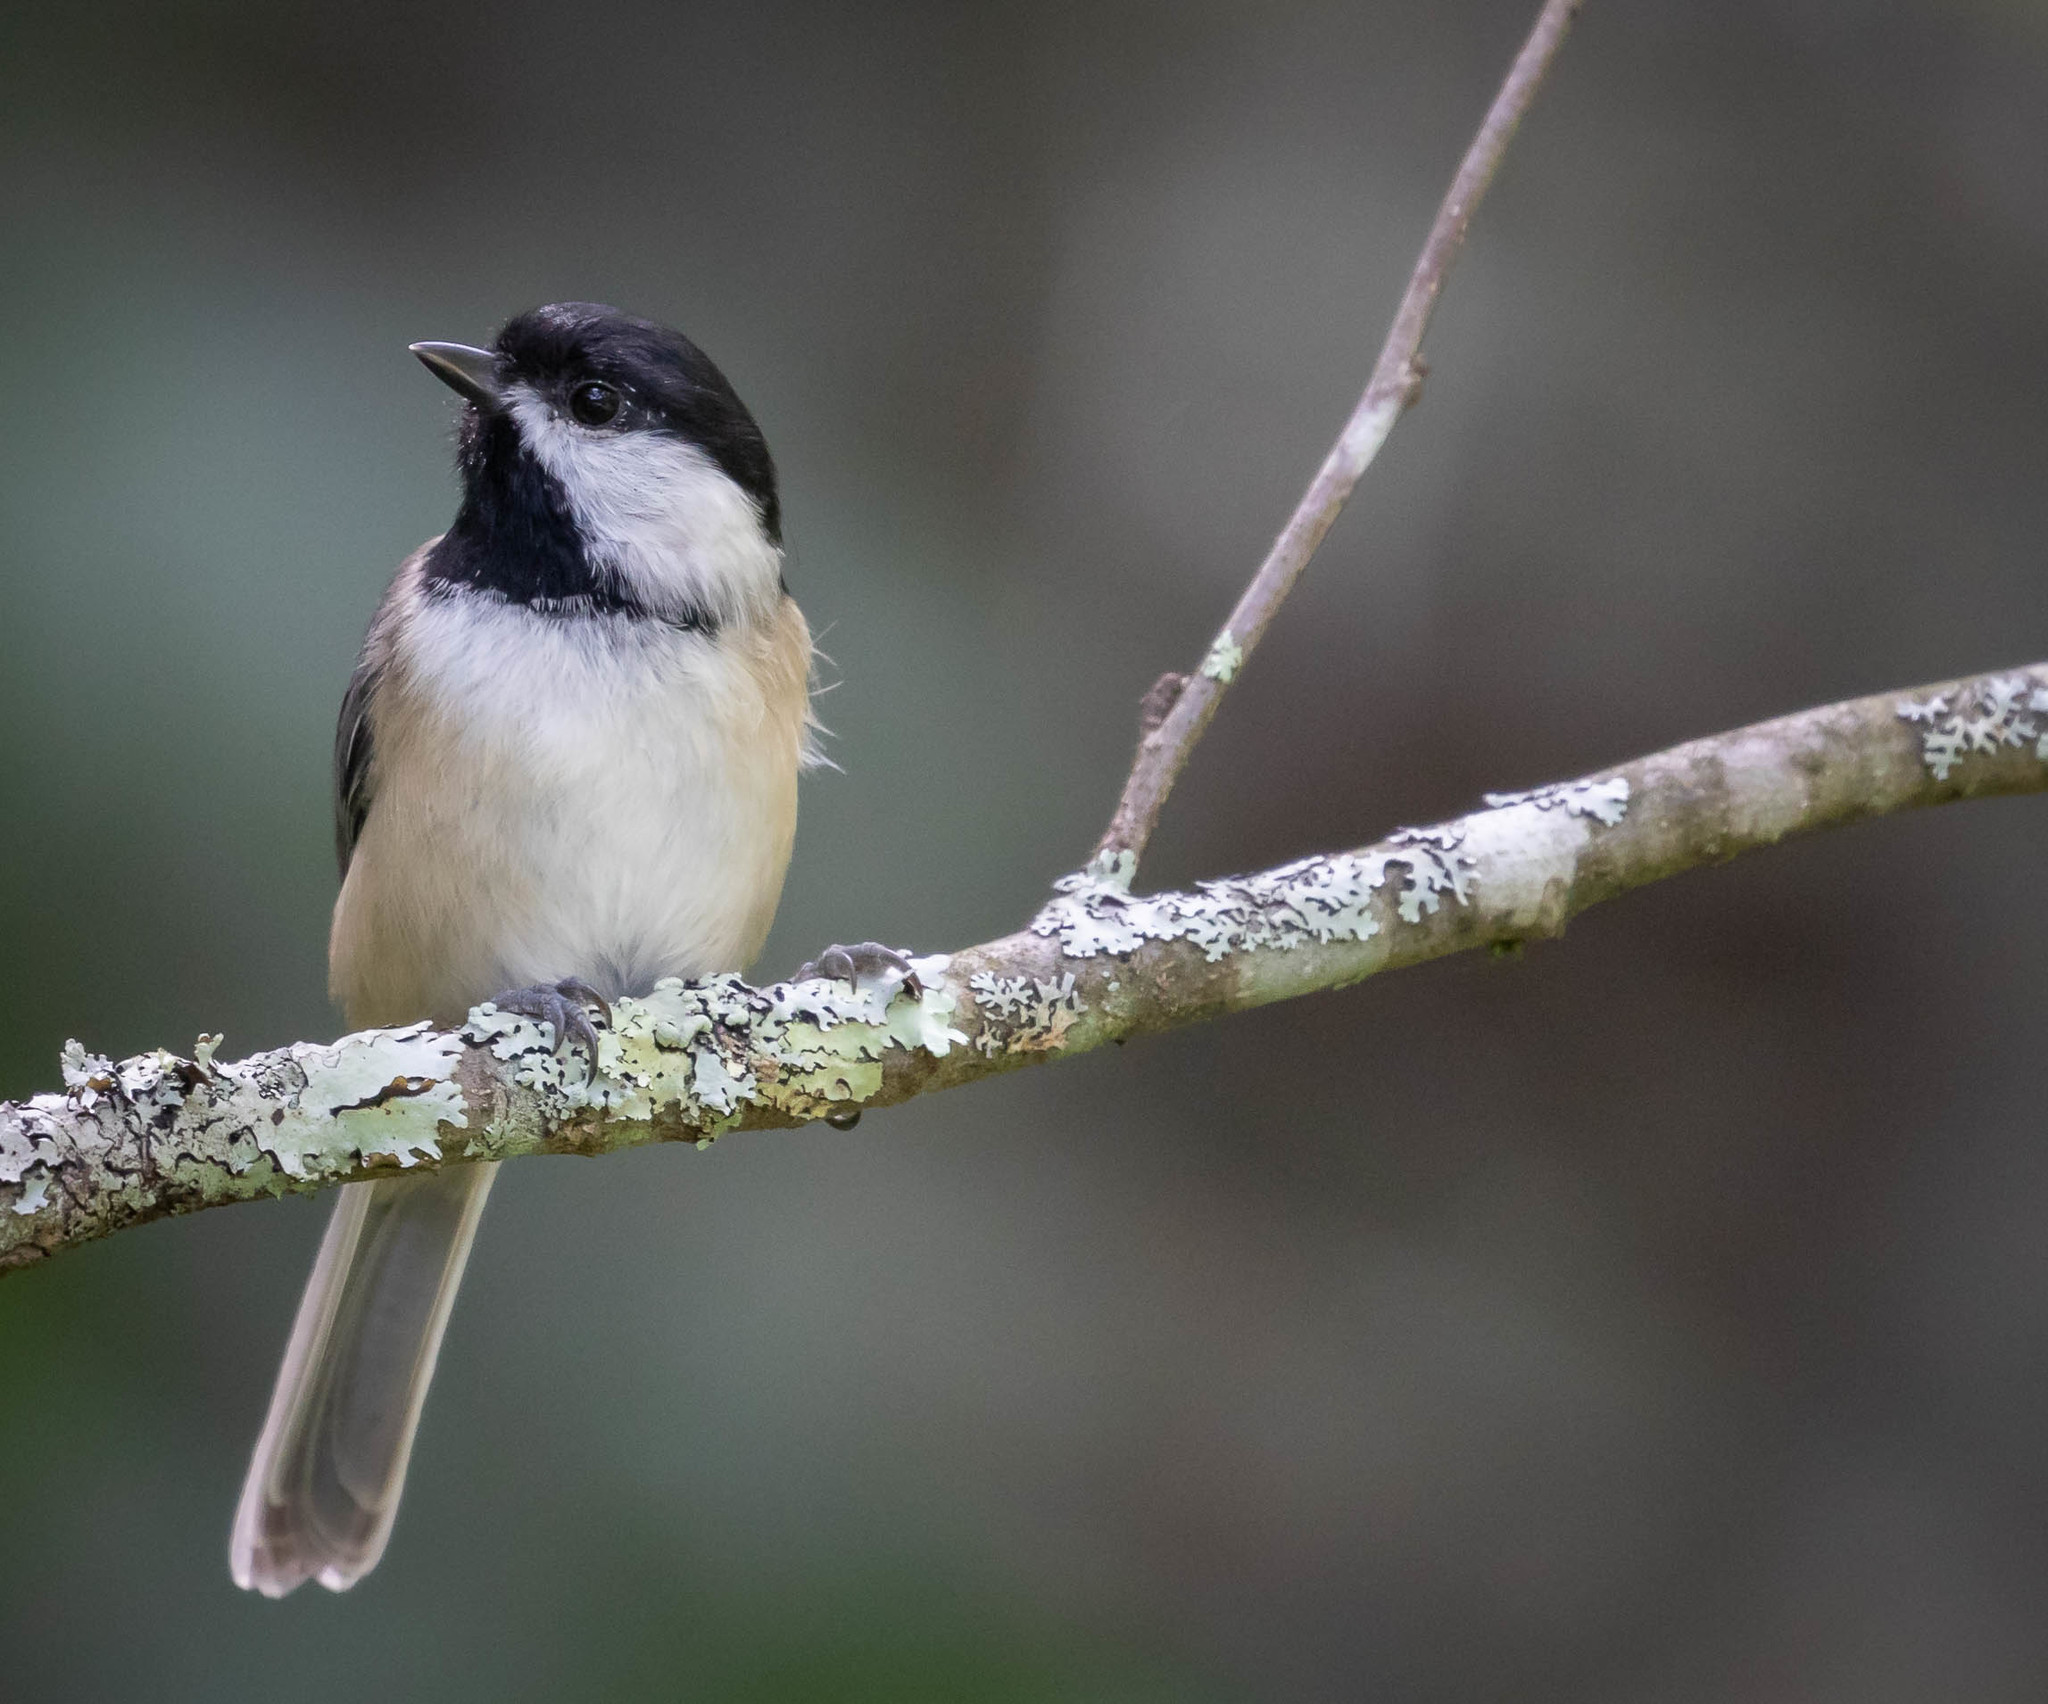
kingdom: Animalia
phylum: Chordata
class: Aves
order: Passeriformes
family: Paridae
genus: Poecile
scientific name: Poecile atricapillus
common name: Black-capped chickadee
